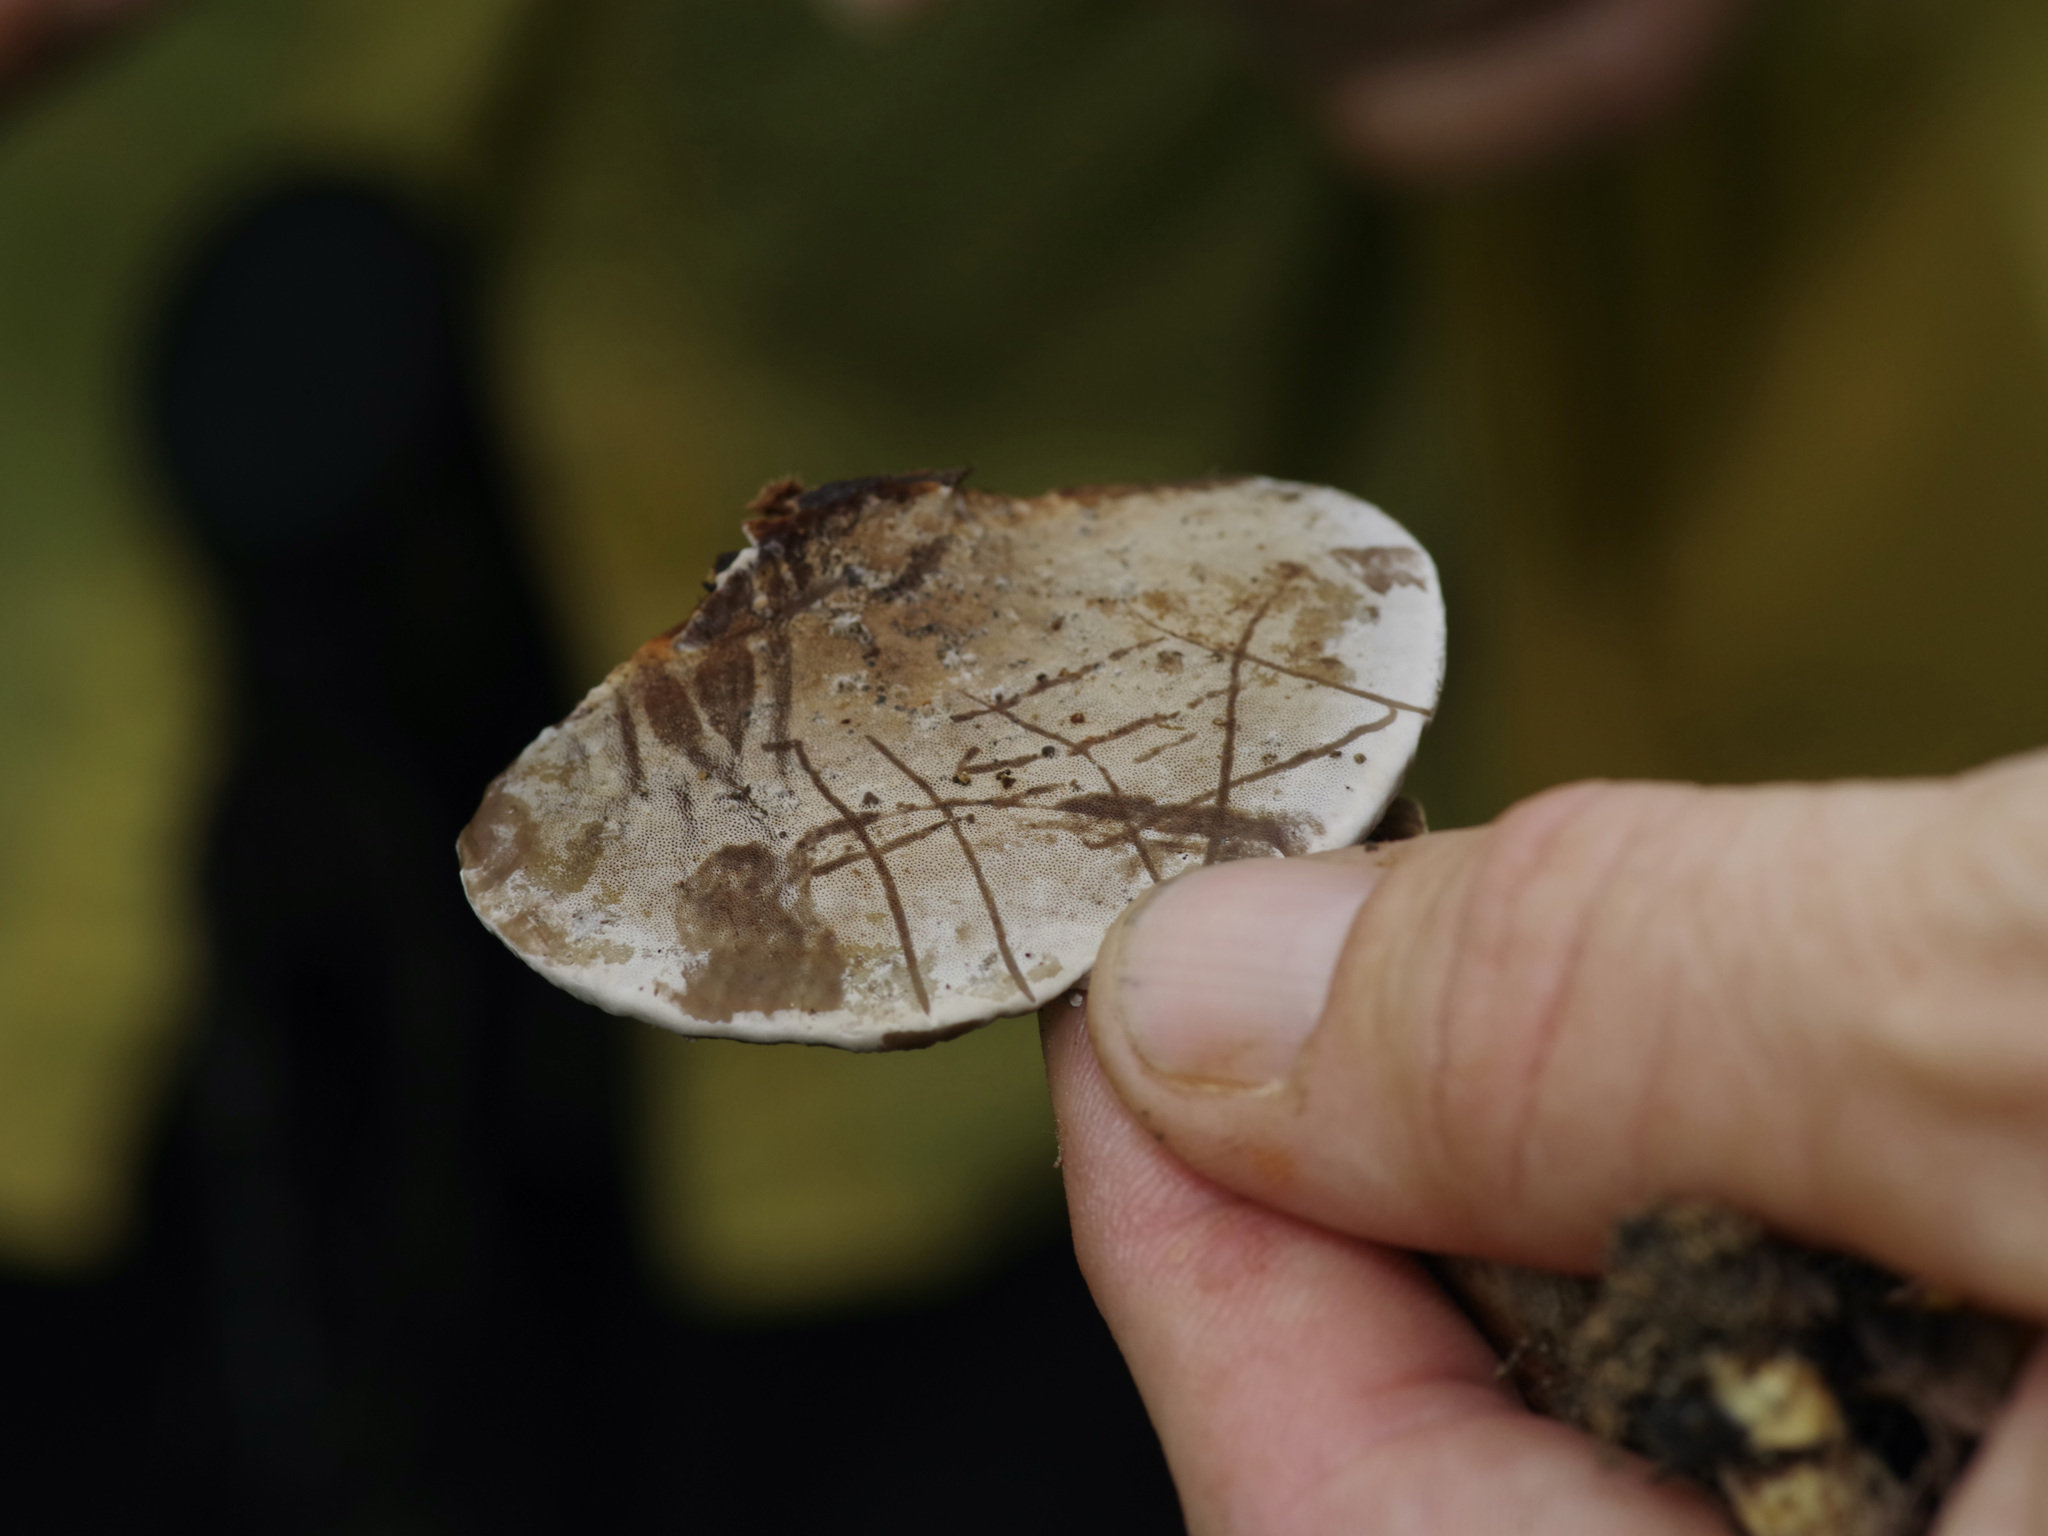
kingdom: Fungi
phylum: Basidiomycota
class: Agaricomycetes
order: Polyporales
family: Cerrenaceae
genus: Cerrena
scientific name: Cerrena hydnoides
